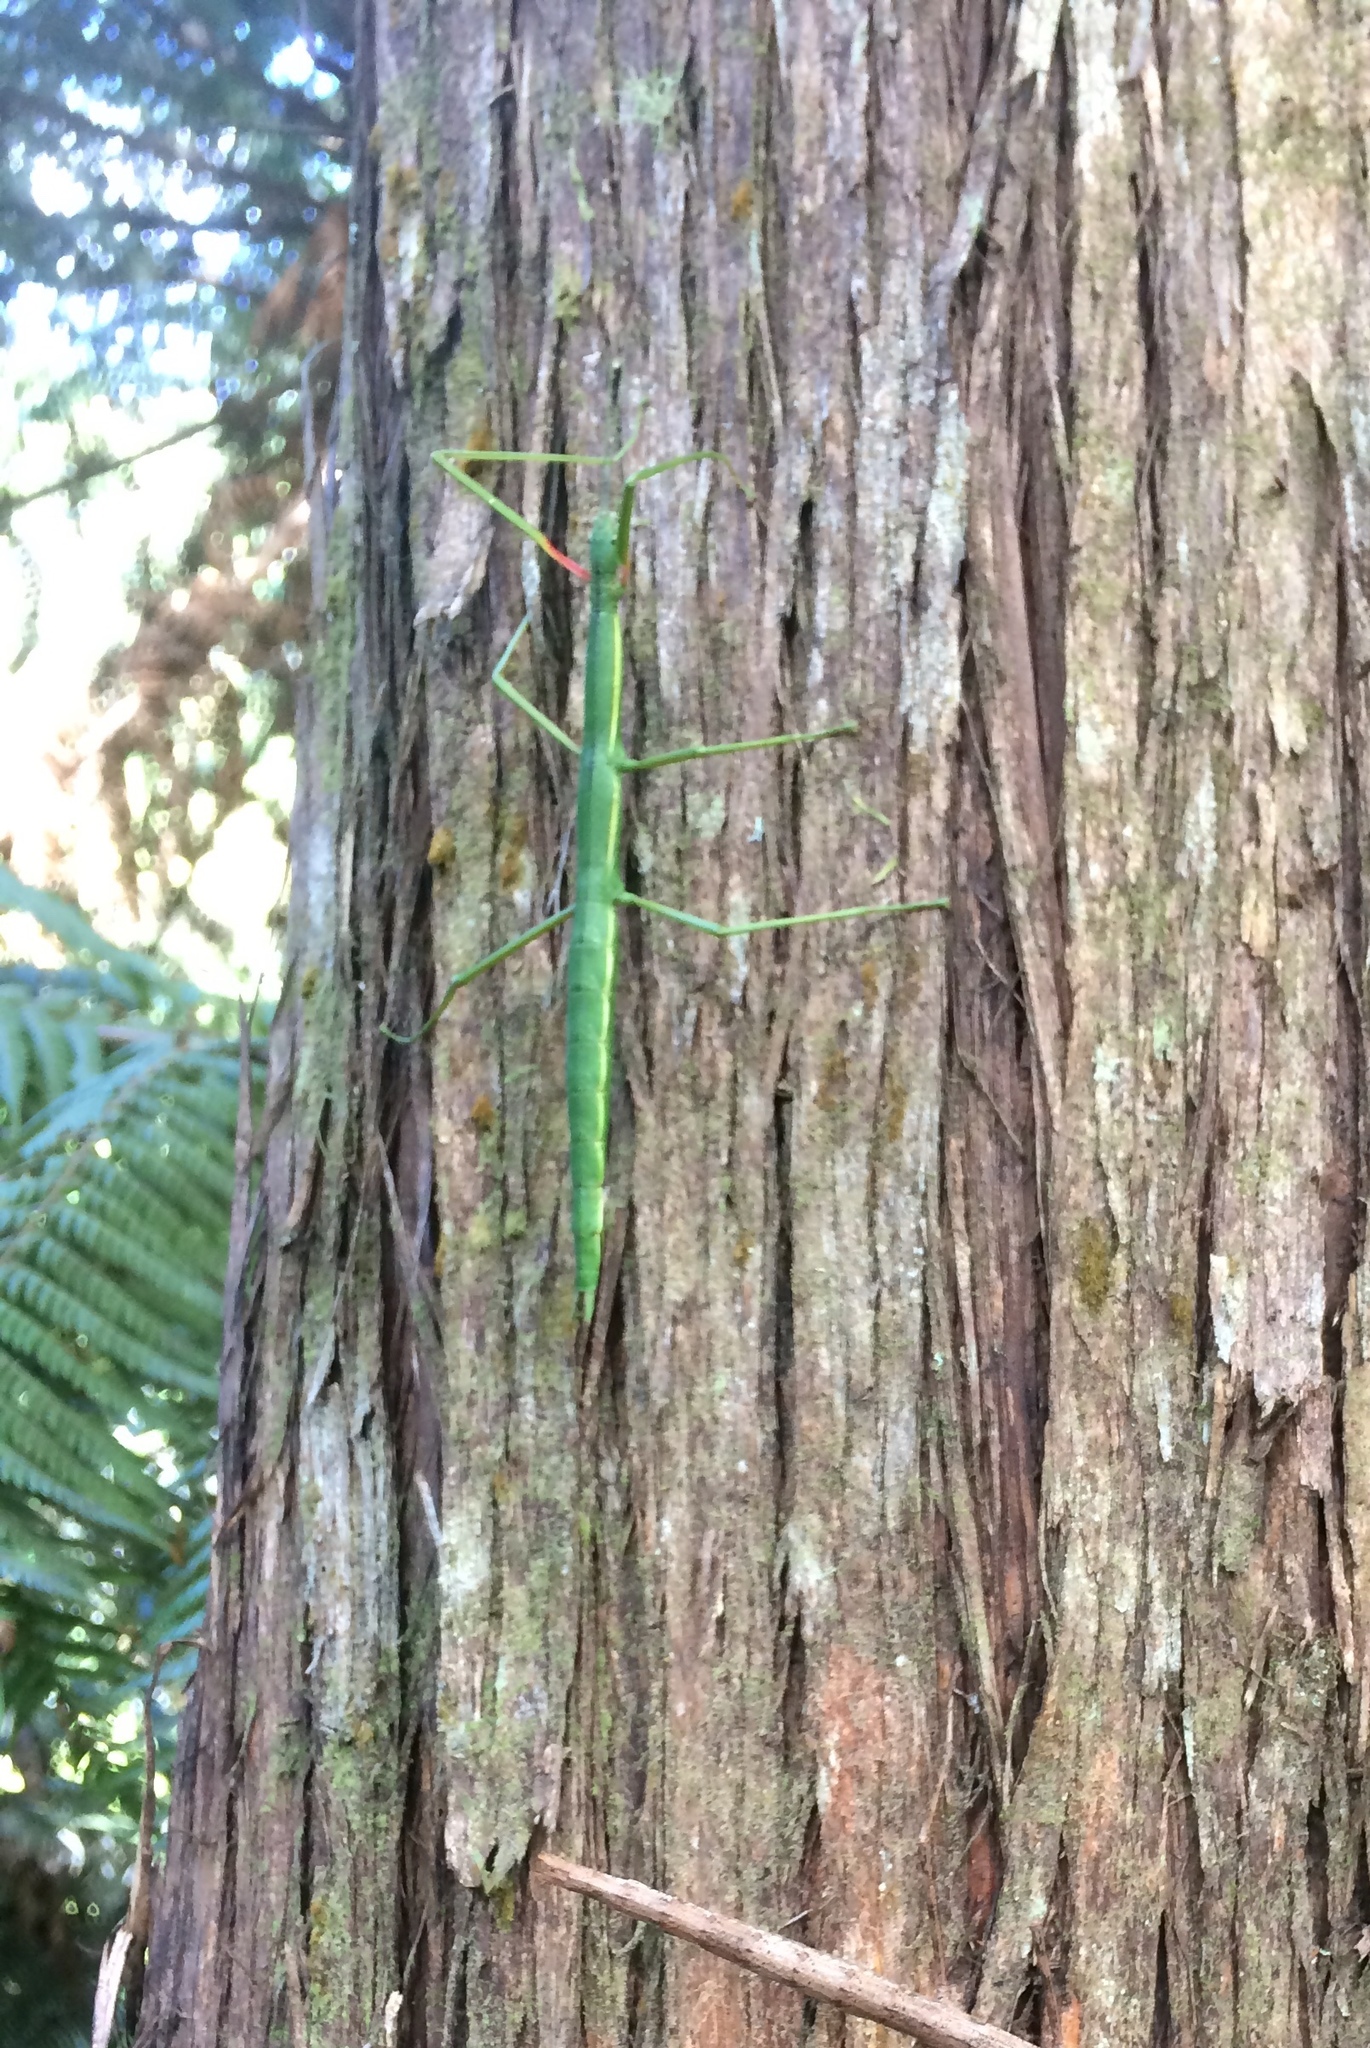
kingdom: Animalia
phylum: Arthropoda
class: Insecta
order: Phasmida
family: Phasmatidae
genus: Clitarchus
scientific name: Clitarchus hookeri
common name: Smooth stick insect
